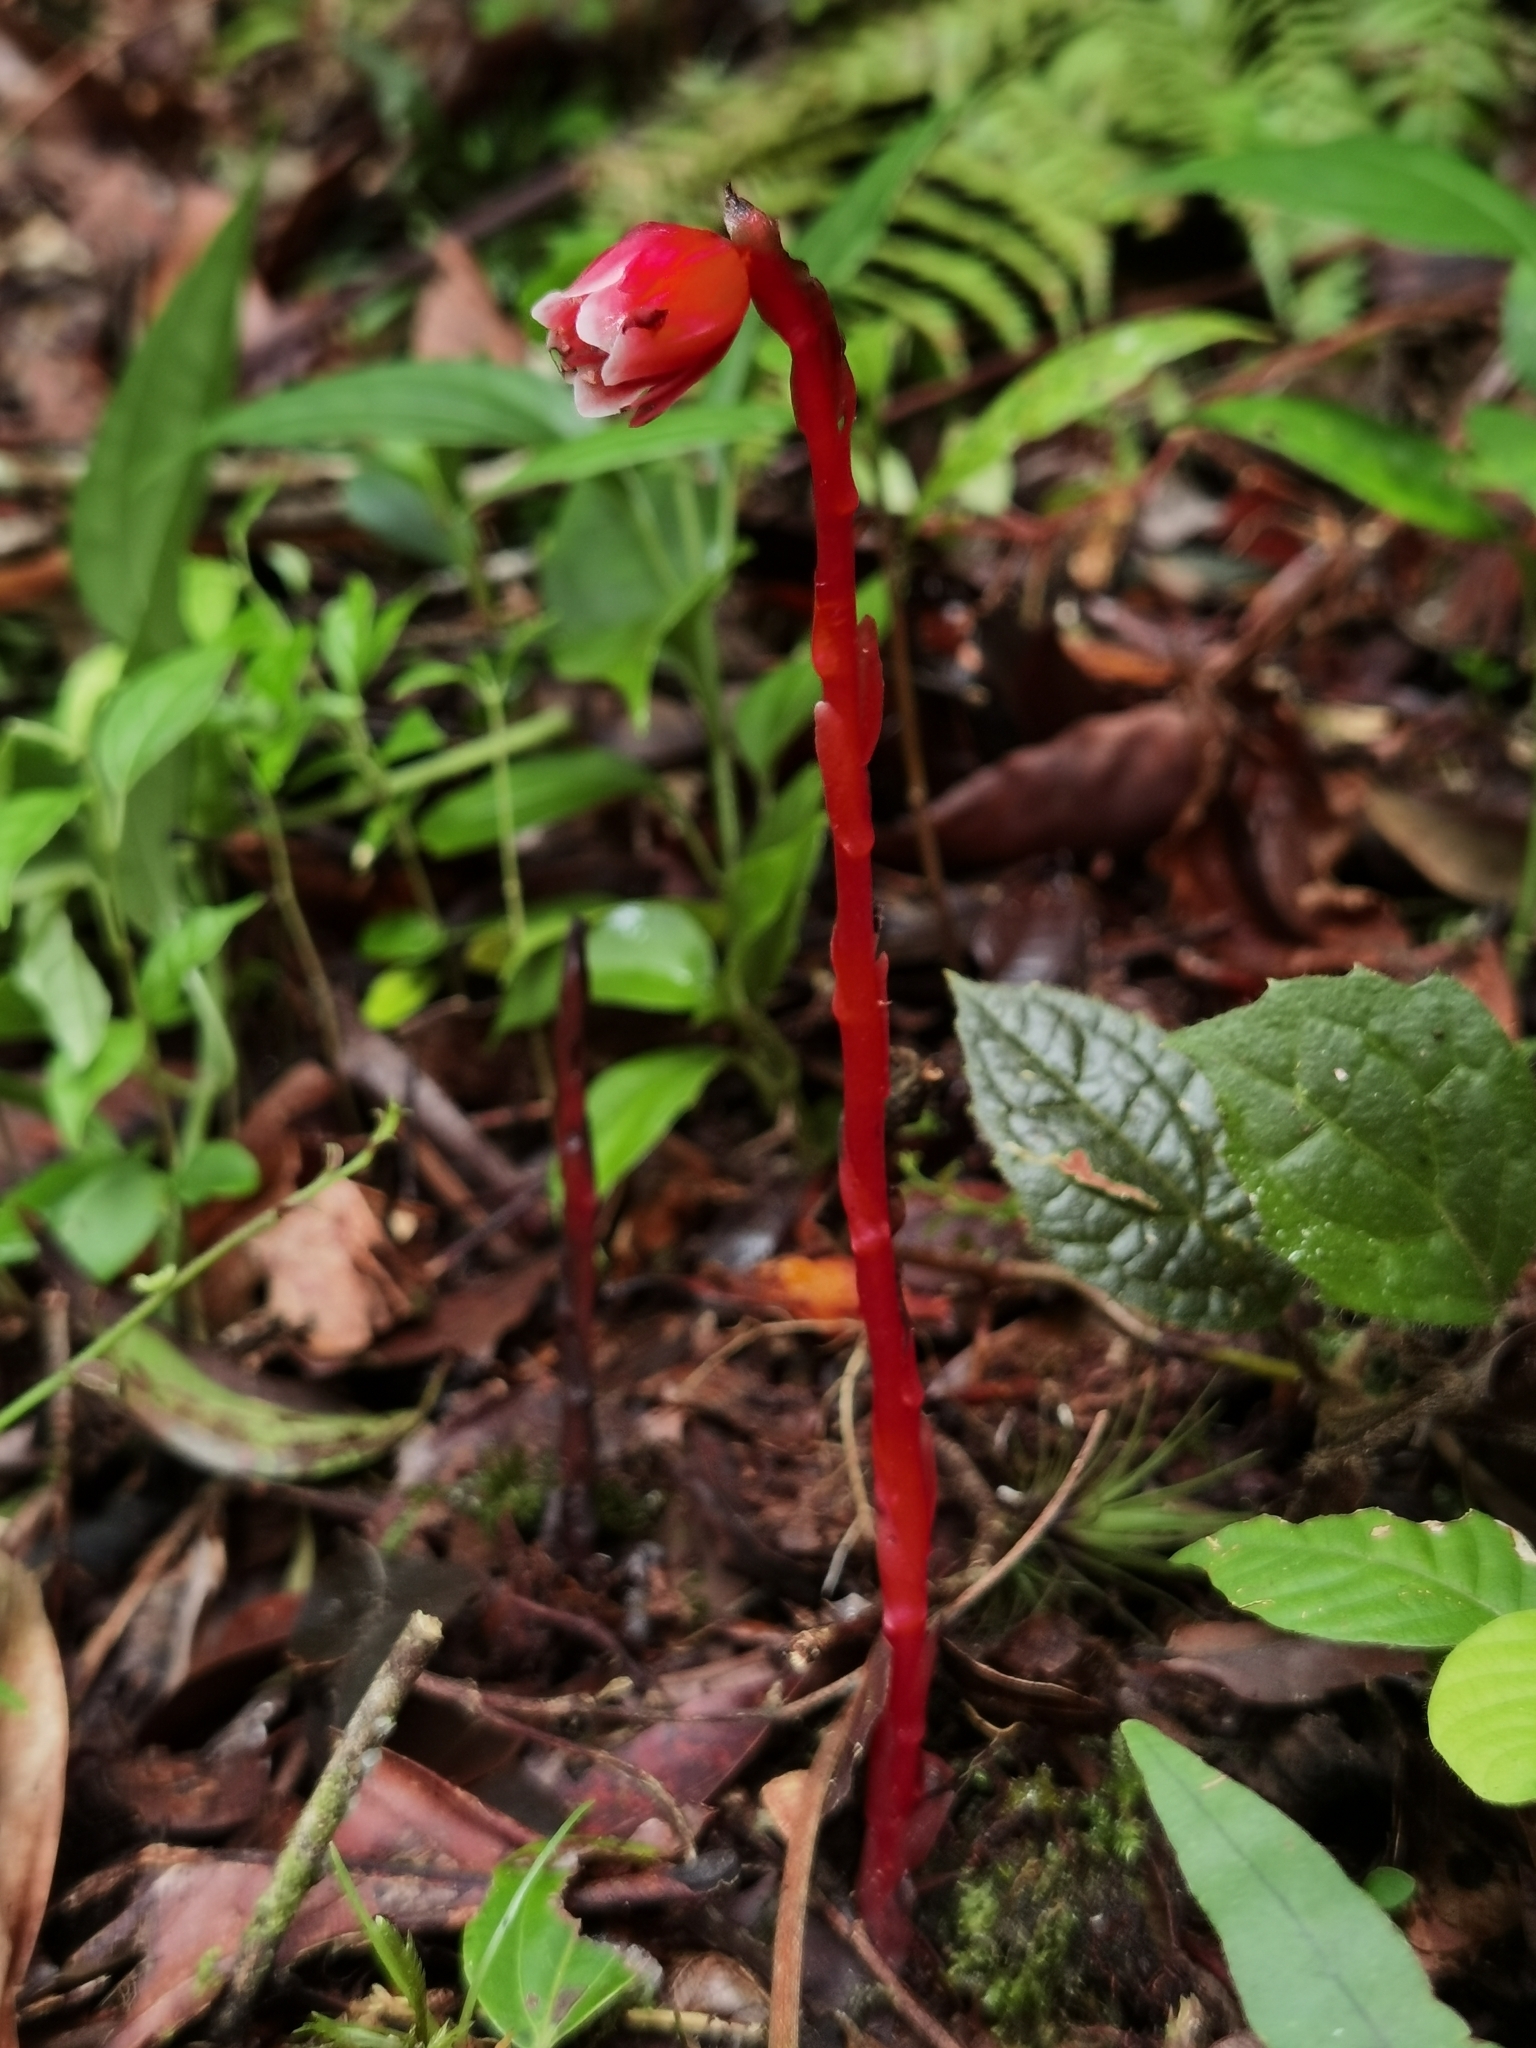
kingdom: Plantae
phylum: Tracheophyta
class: Magnoliopsida
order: Ericales
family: Ericaceae
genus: Monotropa
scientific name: Monotropa coccinea
